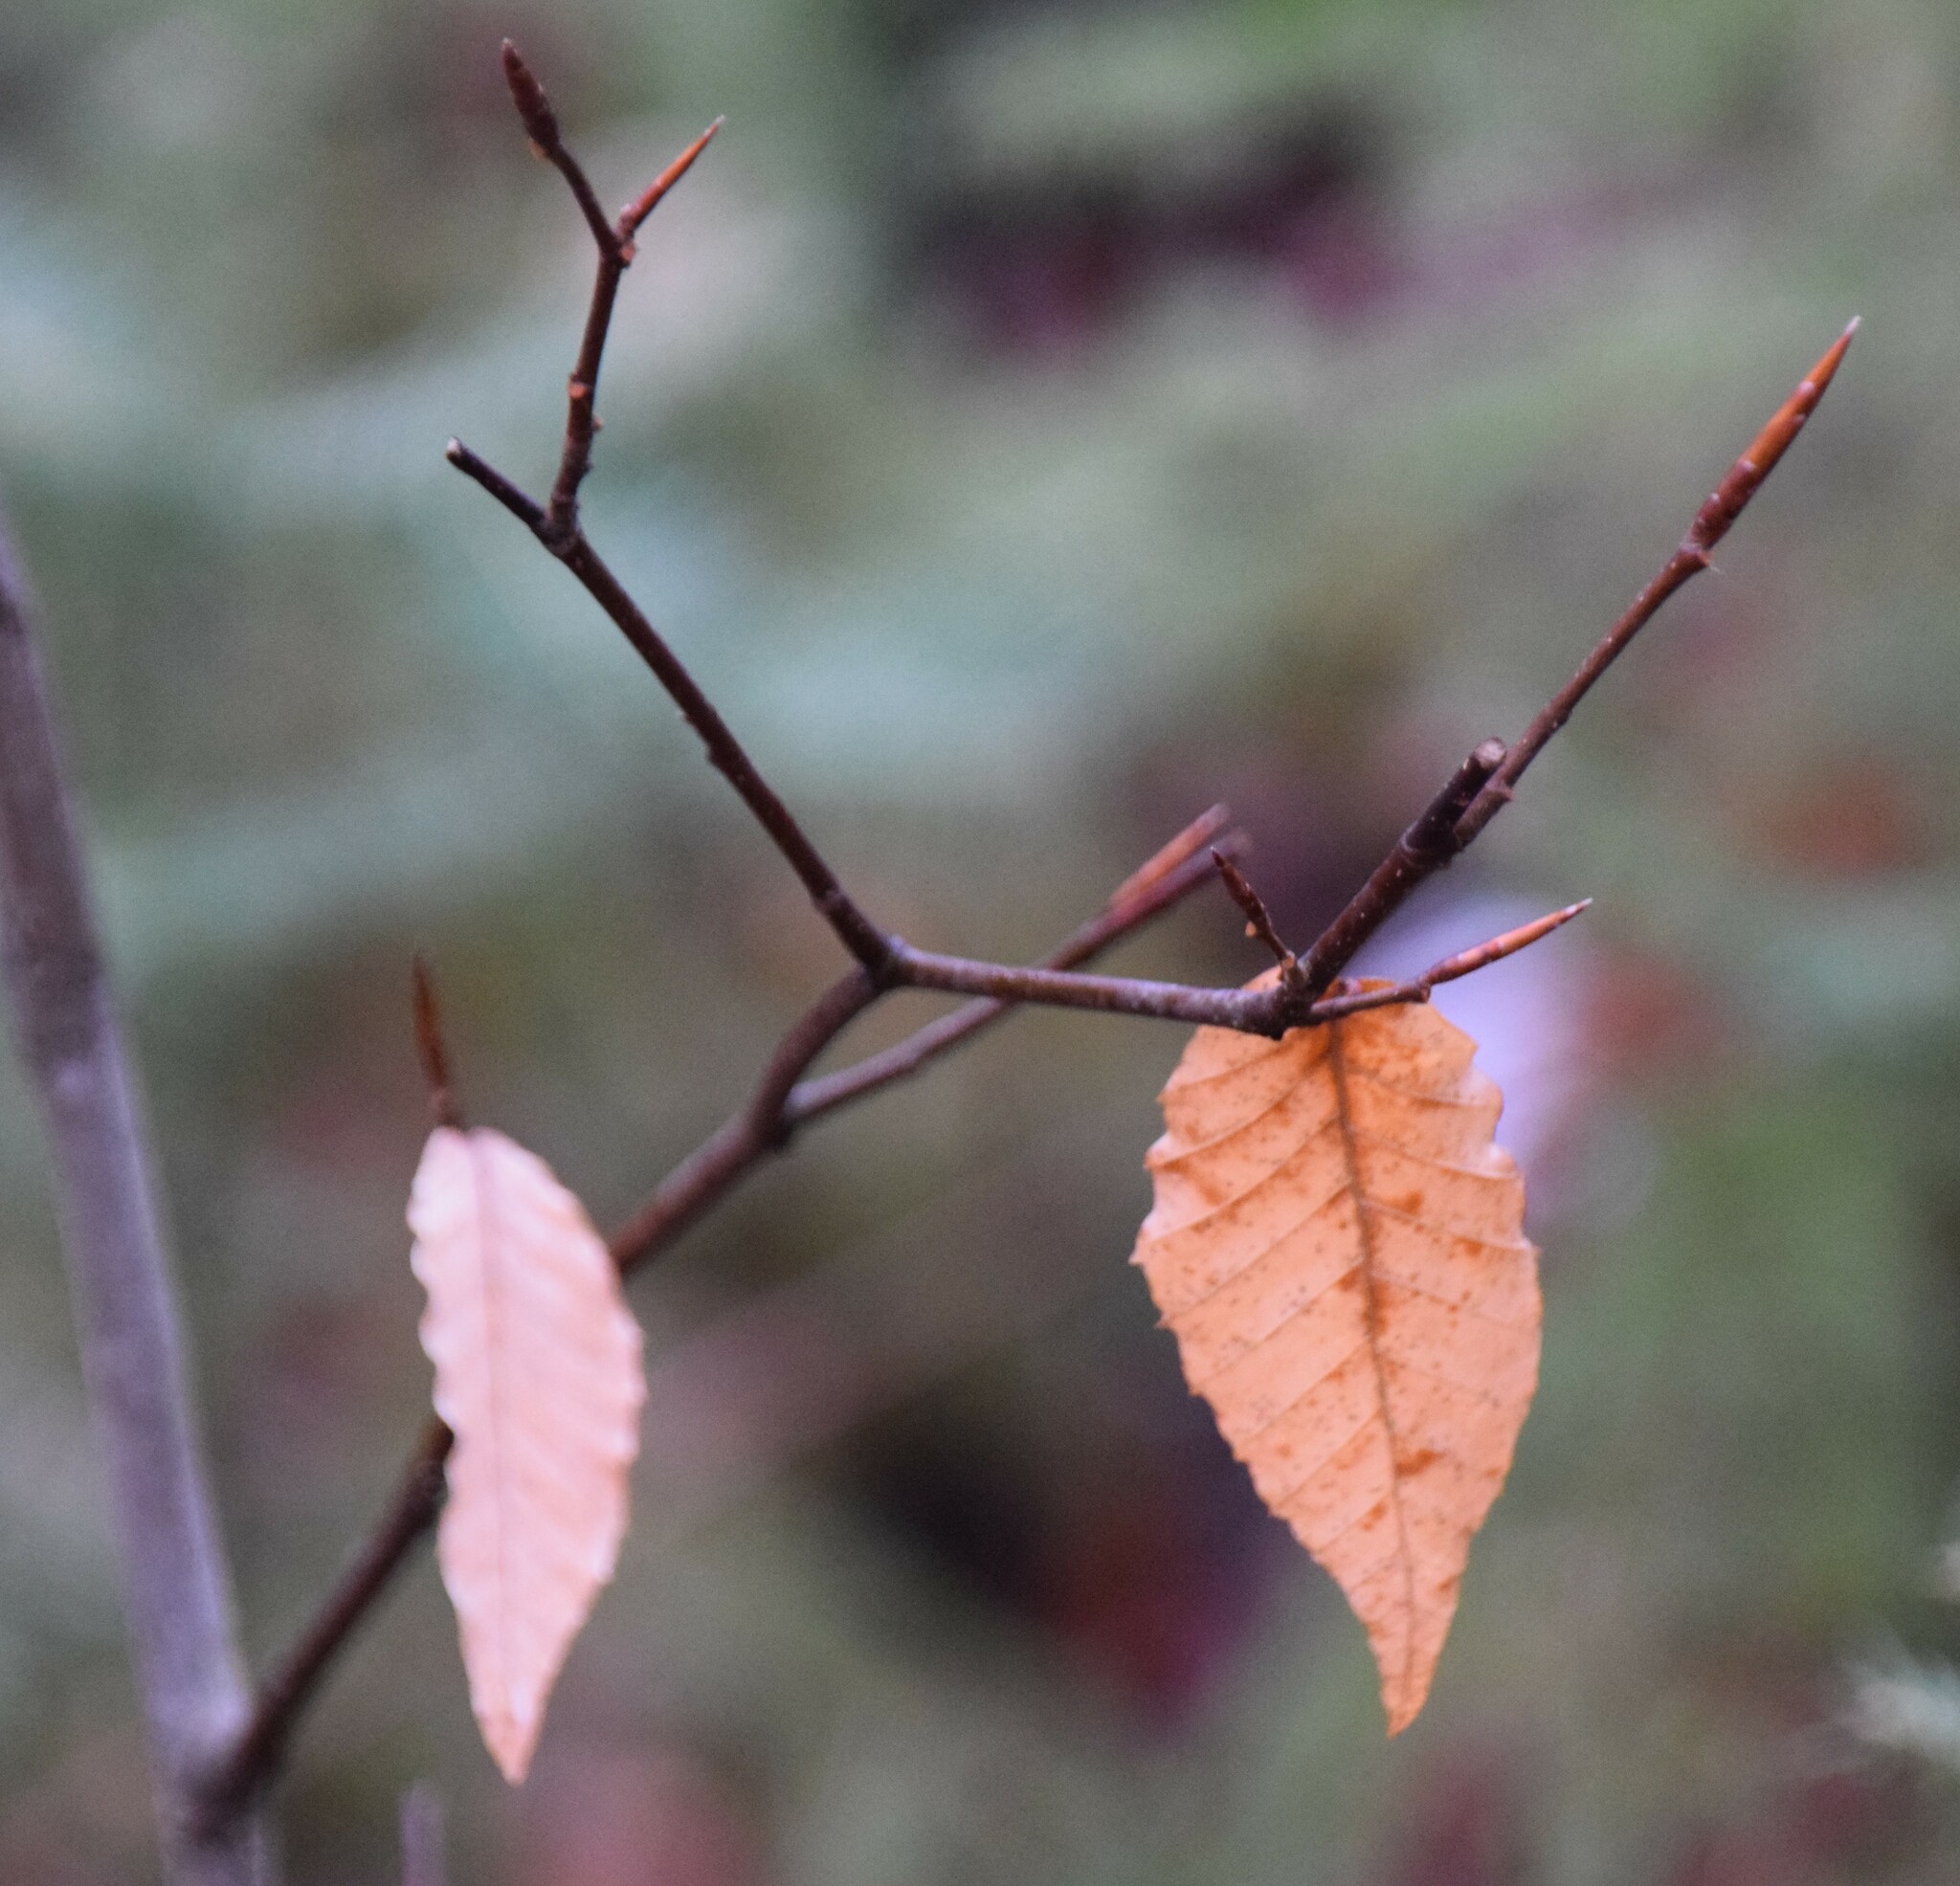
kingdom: Plantae
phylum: Tracheophyta
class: Magnoliopsida
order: Fagales
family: Fagaceae
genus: Fagus
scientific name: Fagus grandifolia
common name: American beech
